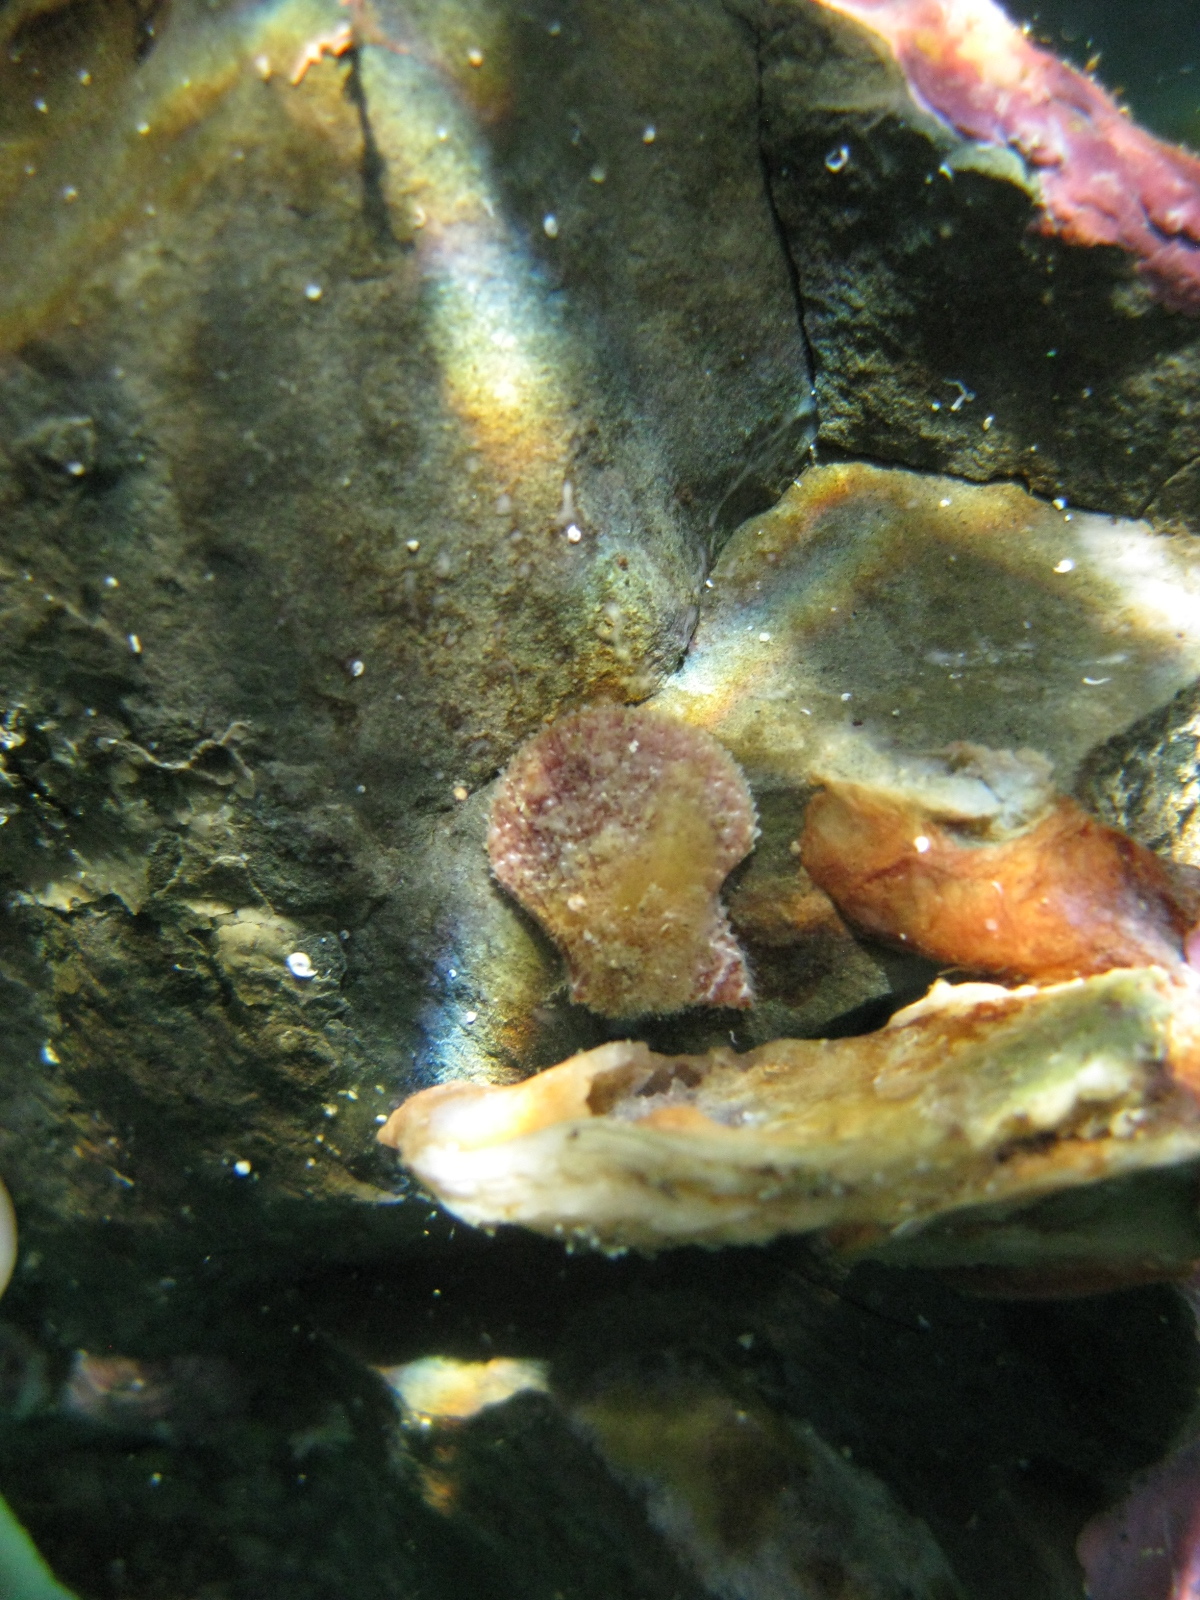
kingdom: Animalia
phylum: Mollusca
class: Bivalvia
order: Pectinida
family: Pectinidae
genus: Talochlamys
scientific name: Talochlamys zelandiae
